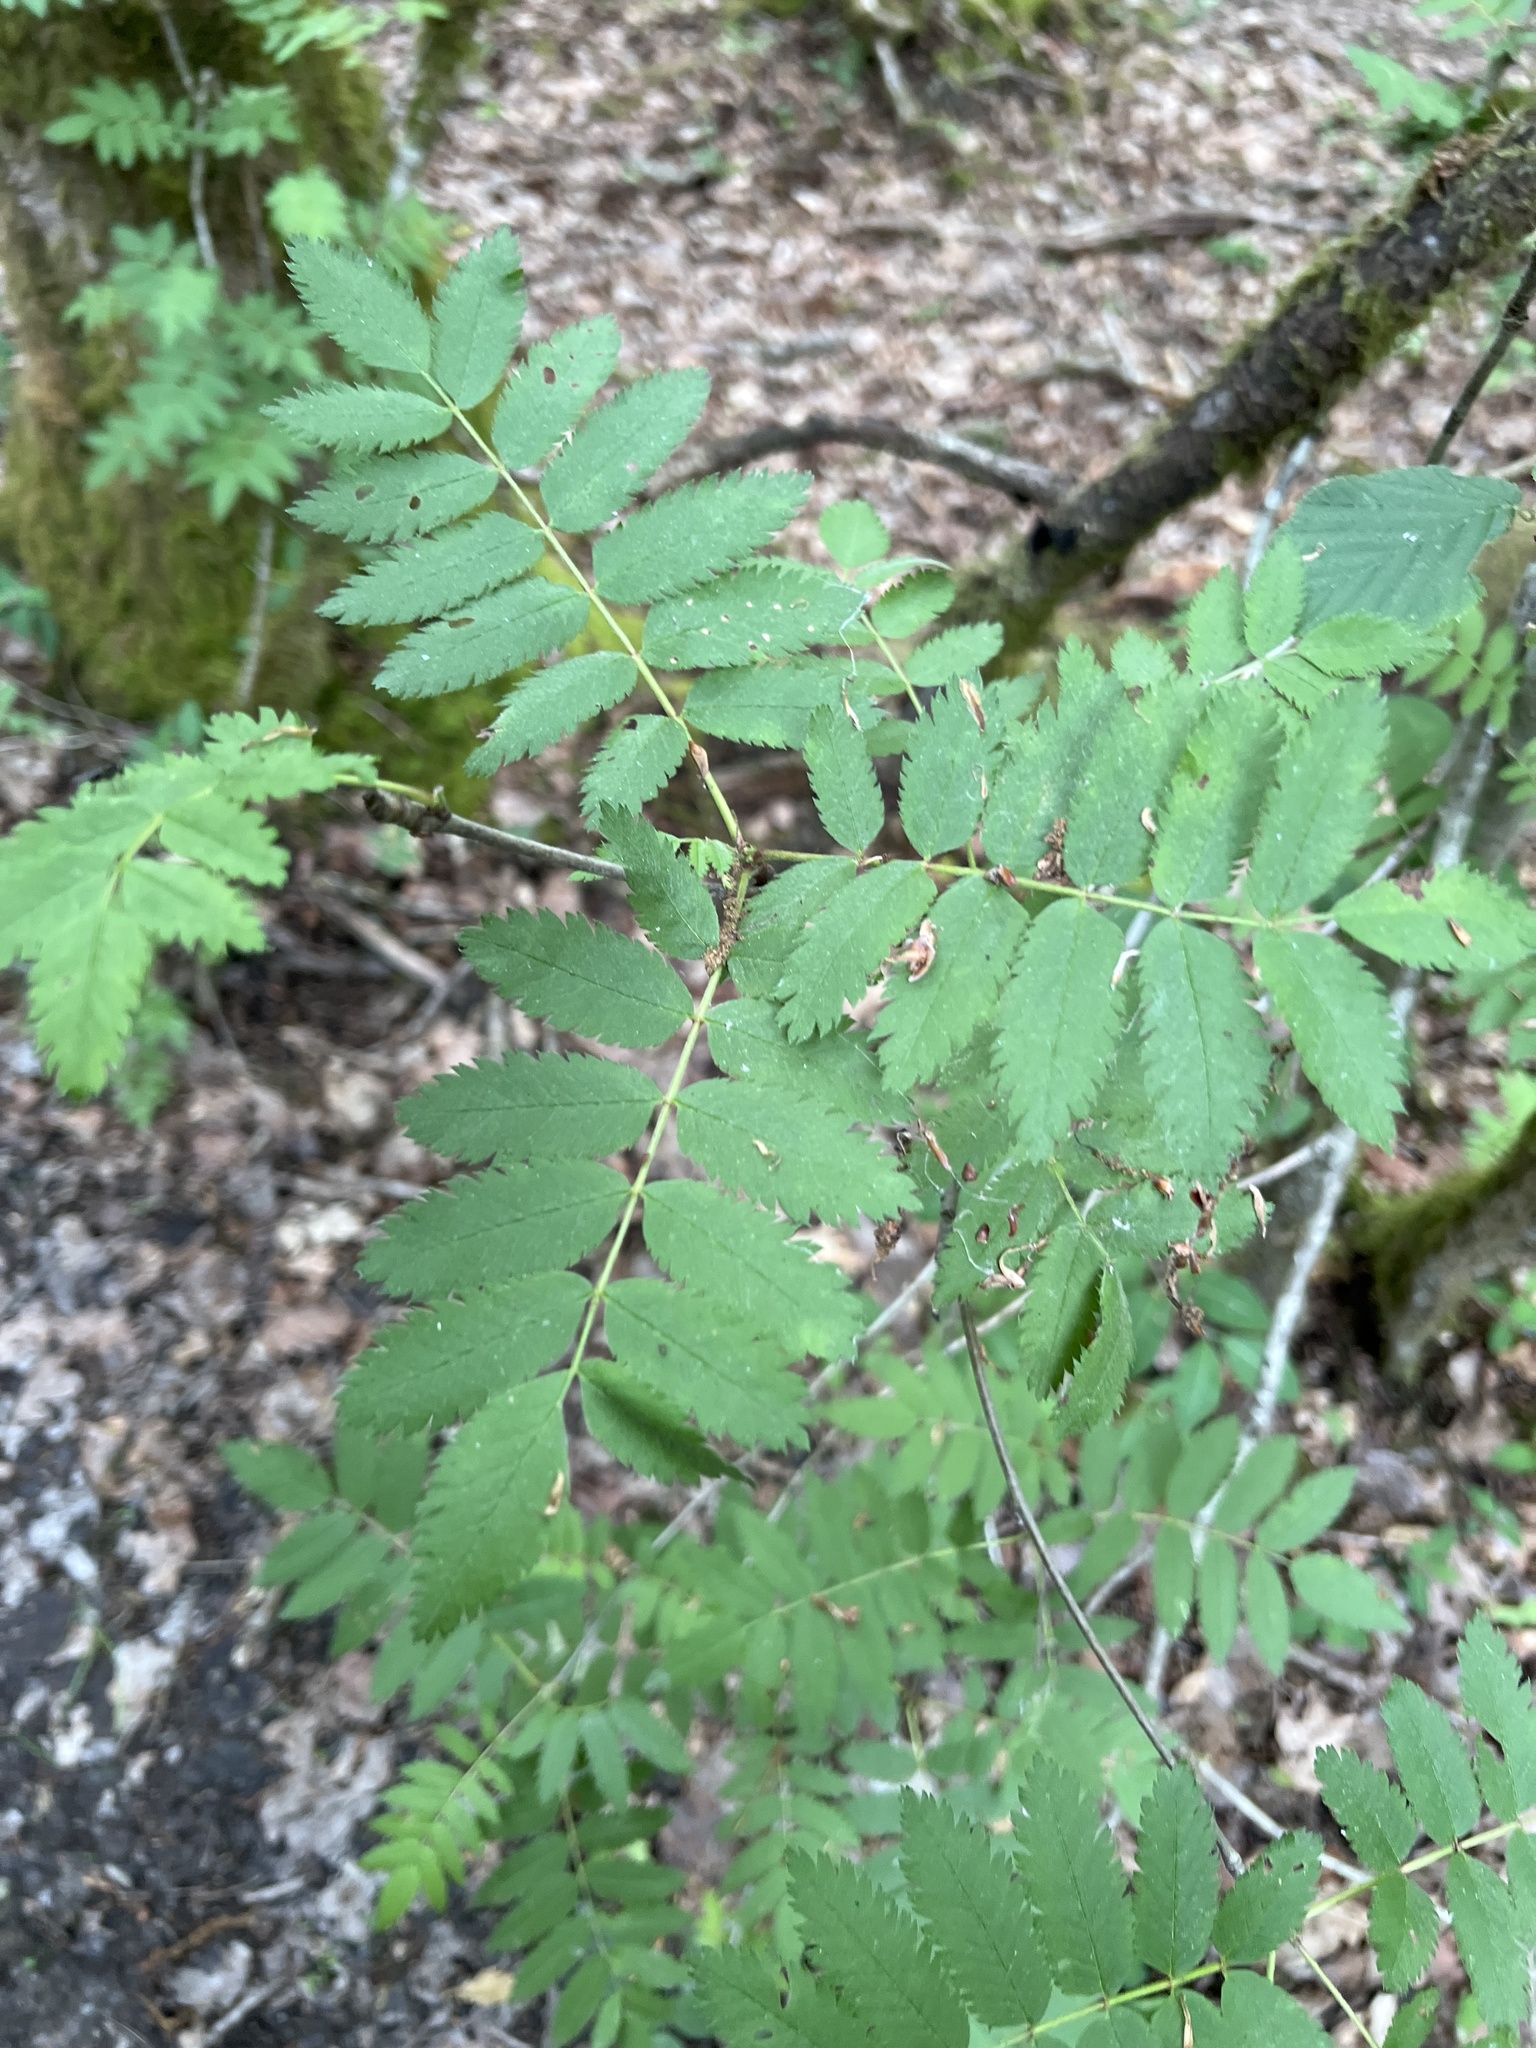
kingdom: Plantae
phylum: Tracheophyta
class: Magnoliopsida
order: Rosales
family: Rosaceae
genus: Sorbus
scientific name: Sorbus aucuparia
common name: Rowan
